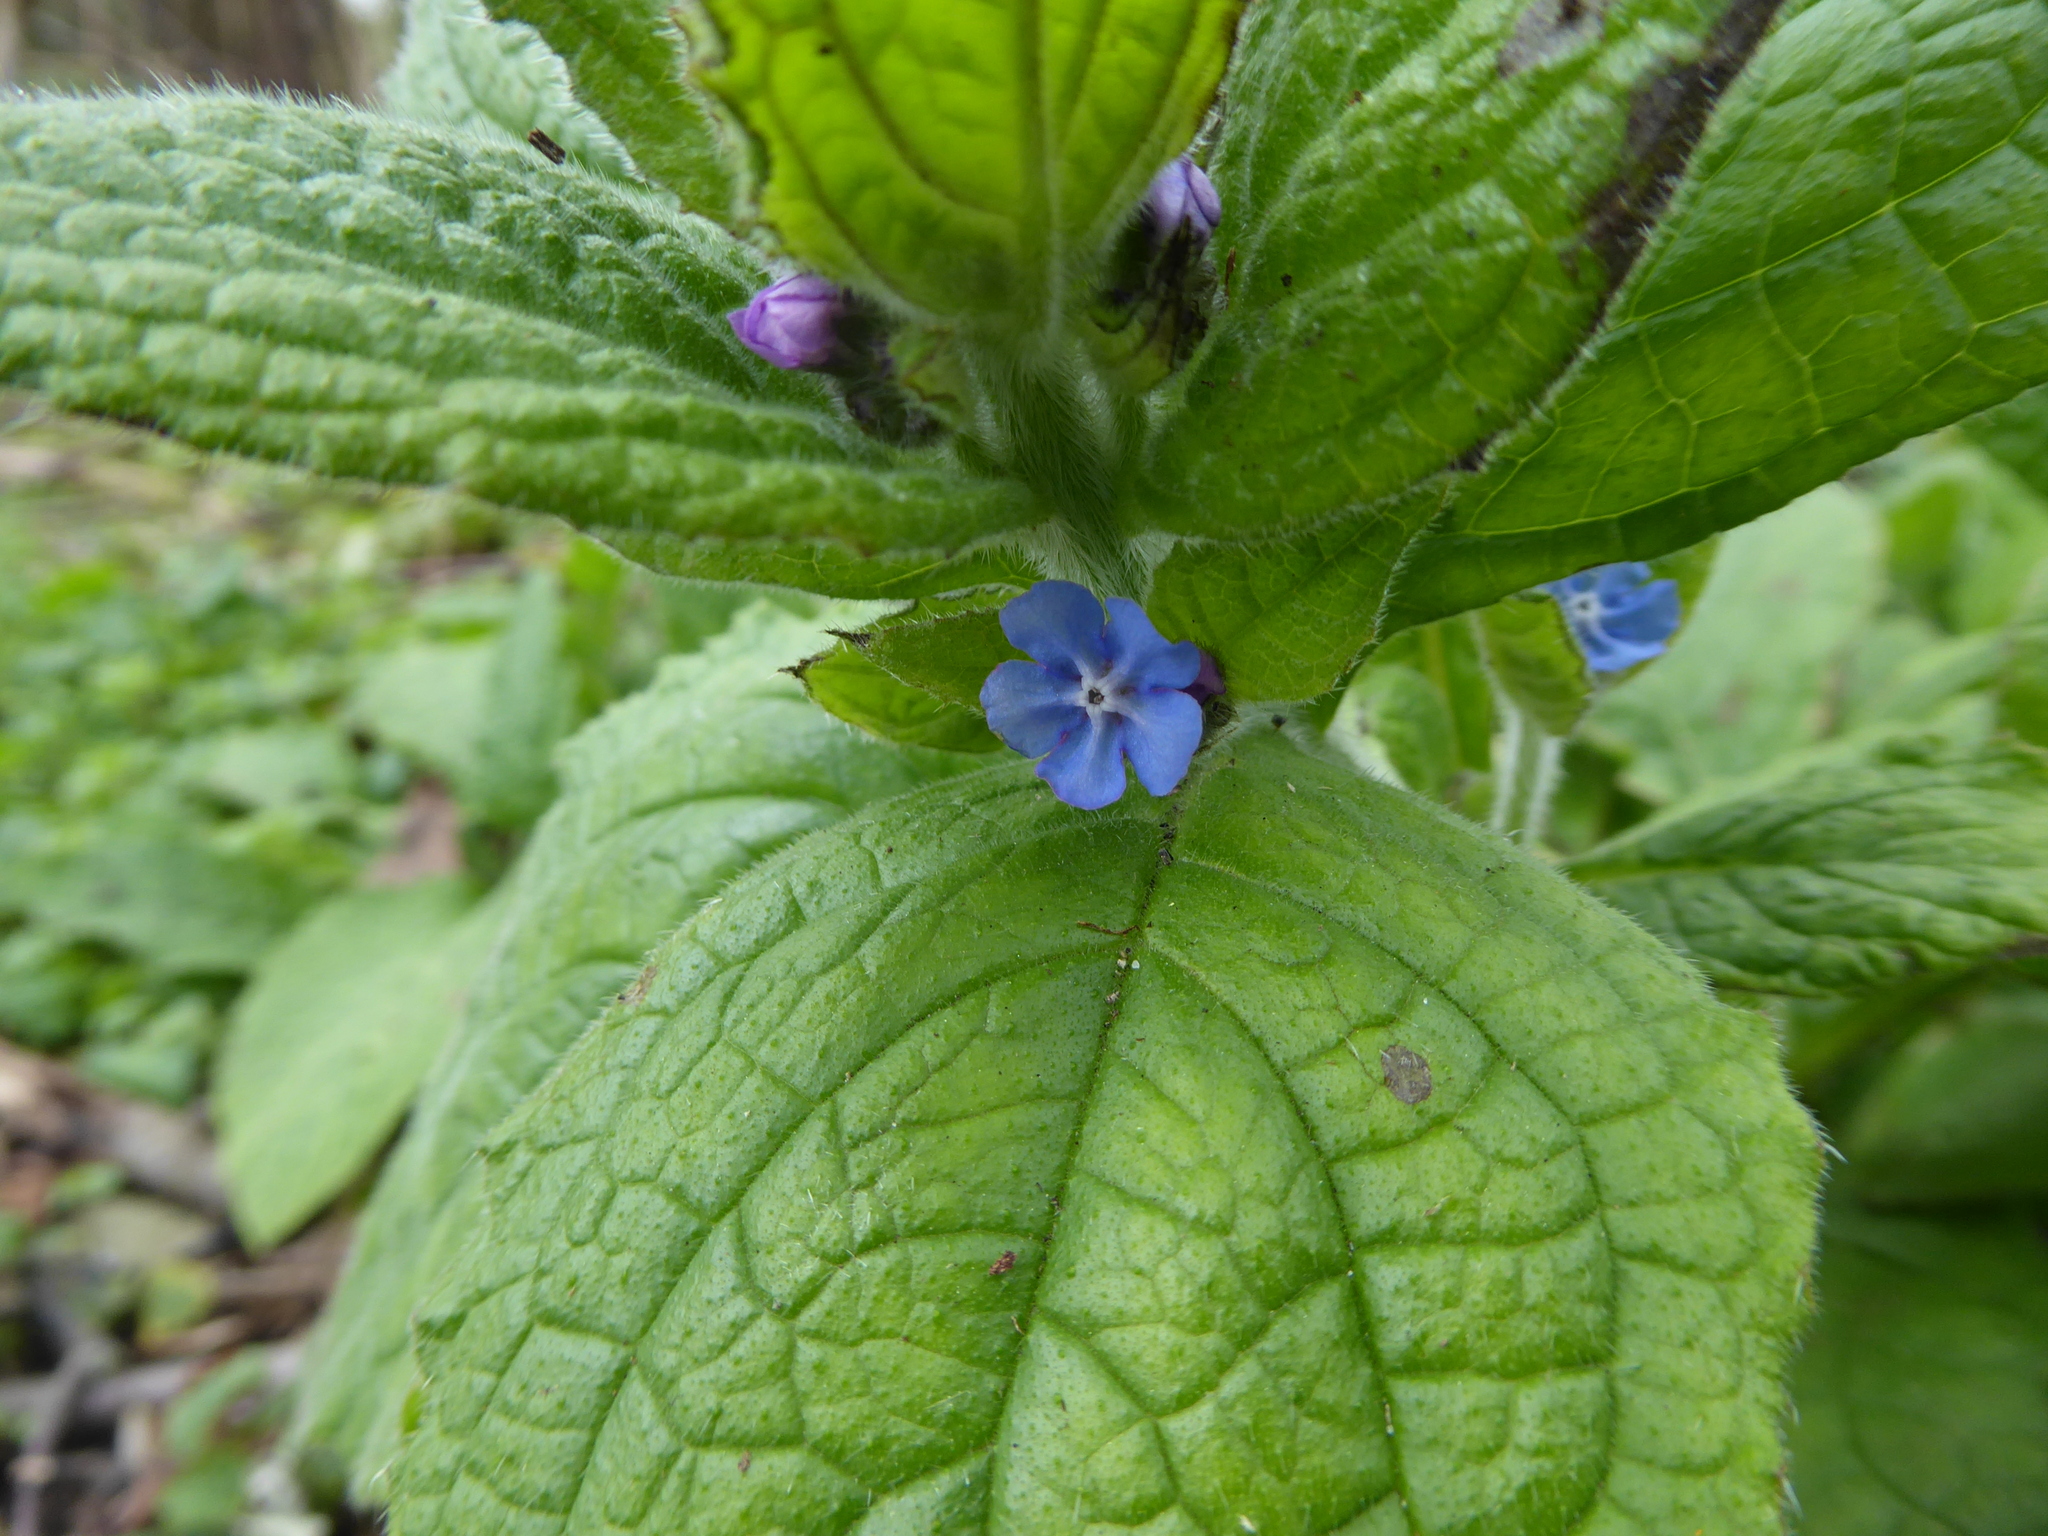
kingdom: Plantae
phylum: Tracheophyta
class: Magnoliopsida
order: Boraginales
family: Boraginaceae
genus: Pentaglottis
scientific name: Pentaglottis sempervirens
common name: Green alkanet
